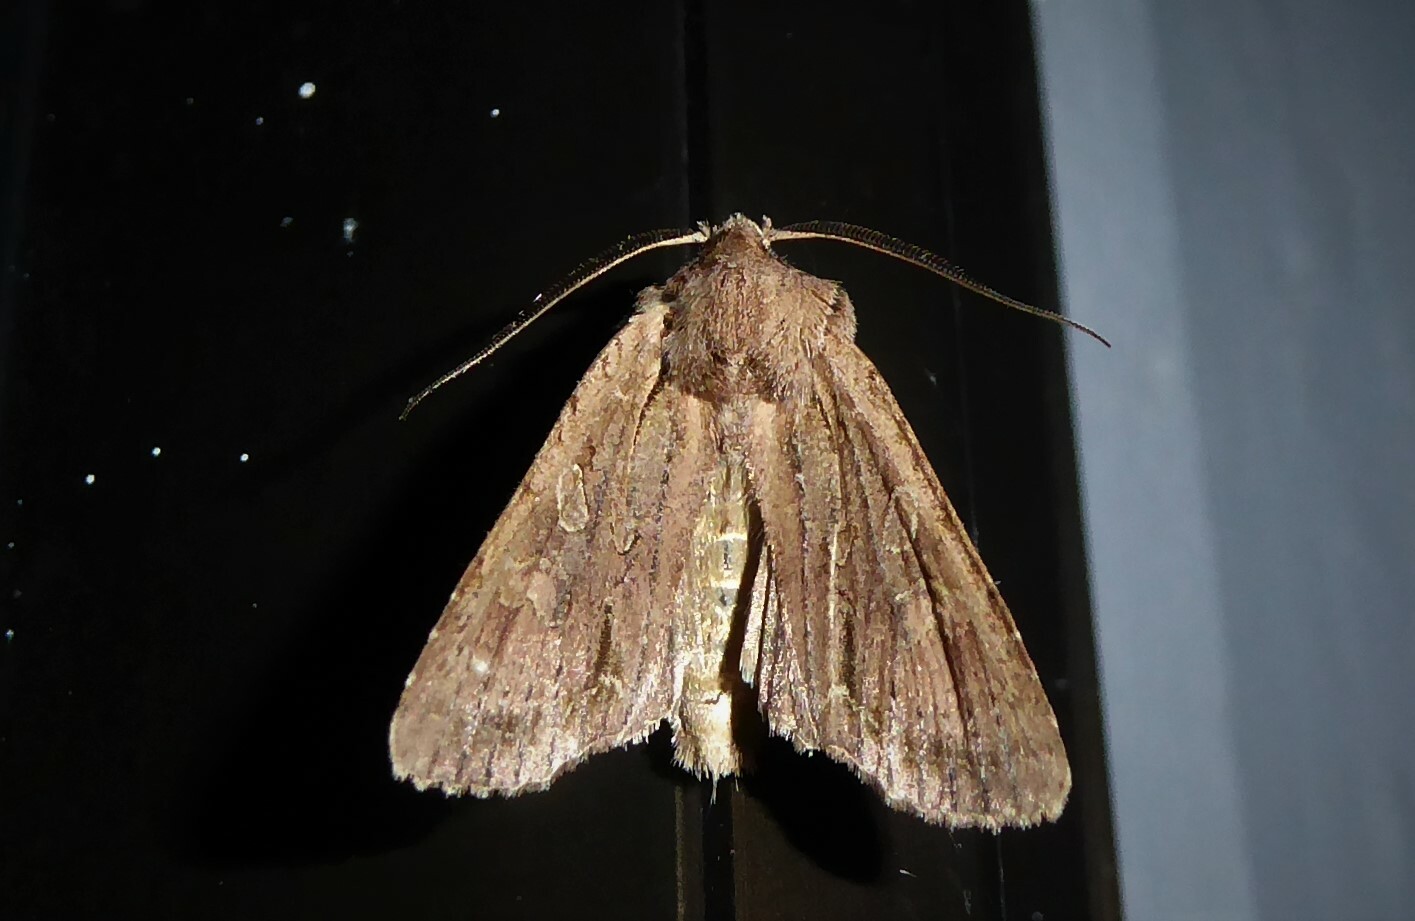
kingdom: Animalia
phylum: Arthropoda
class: Insecta
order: Lepidoptera
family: Noctuidae
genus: Ichneutica
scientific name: Ichneutica
